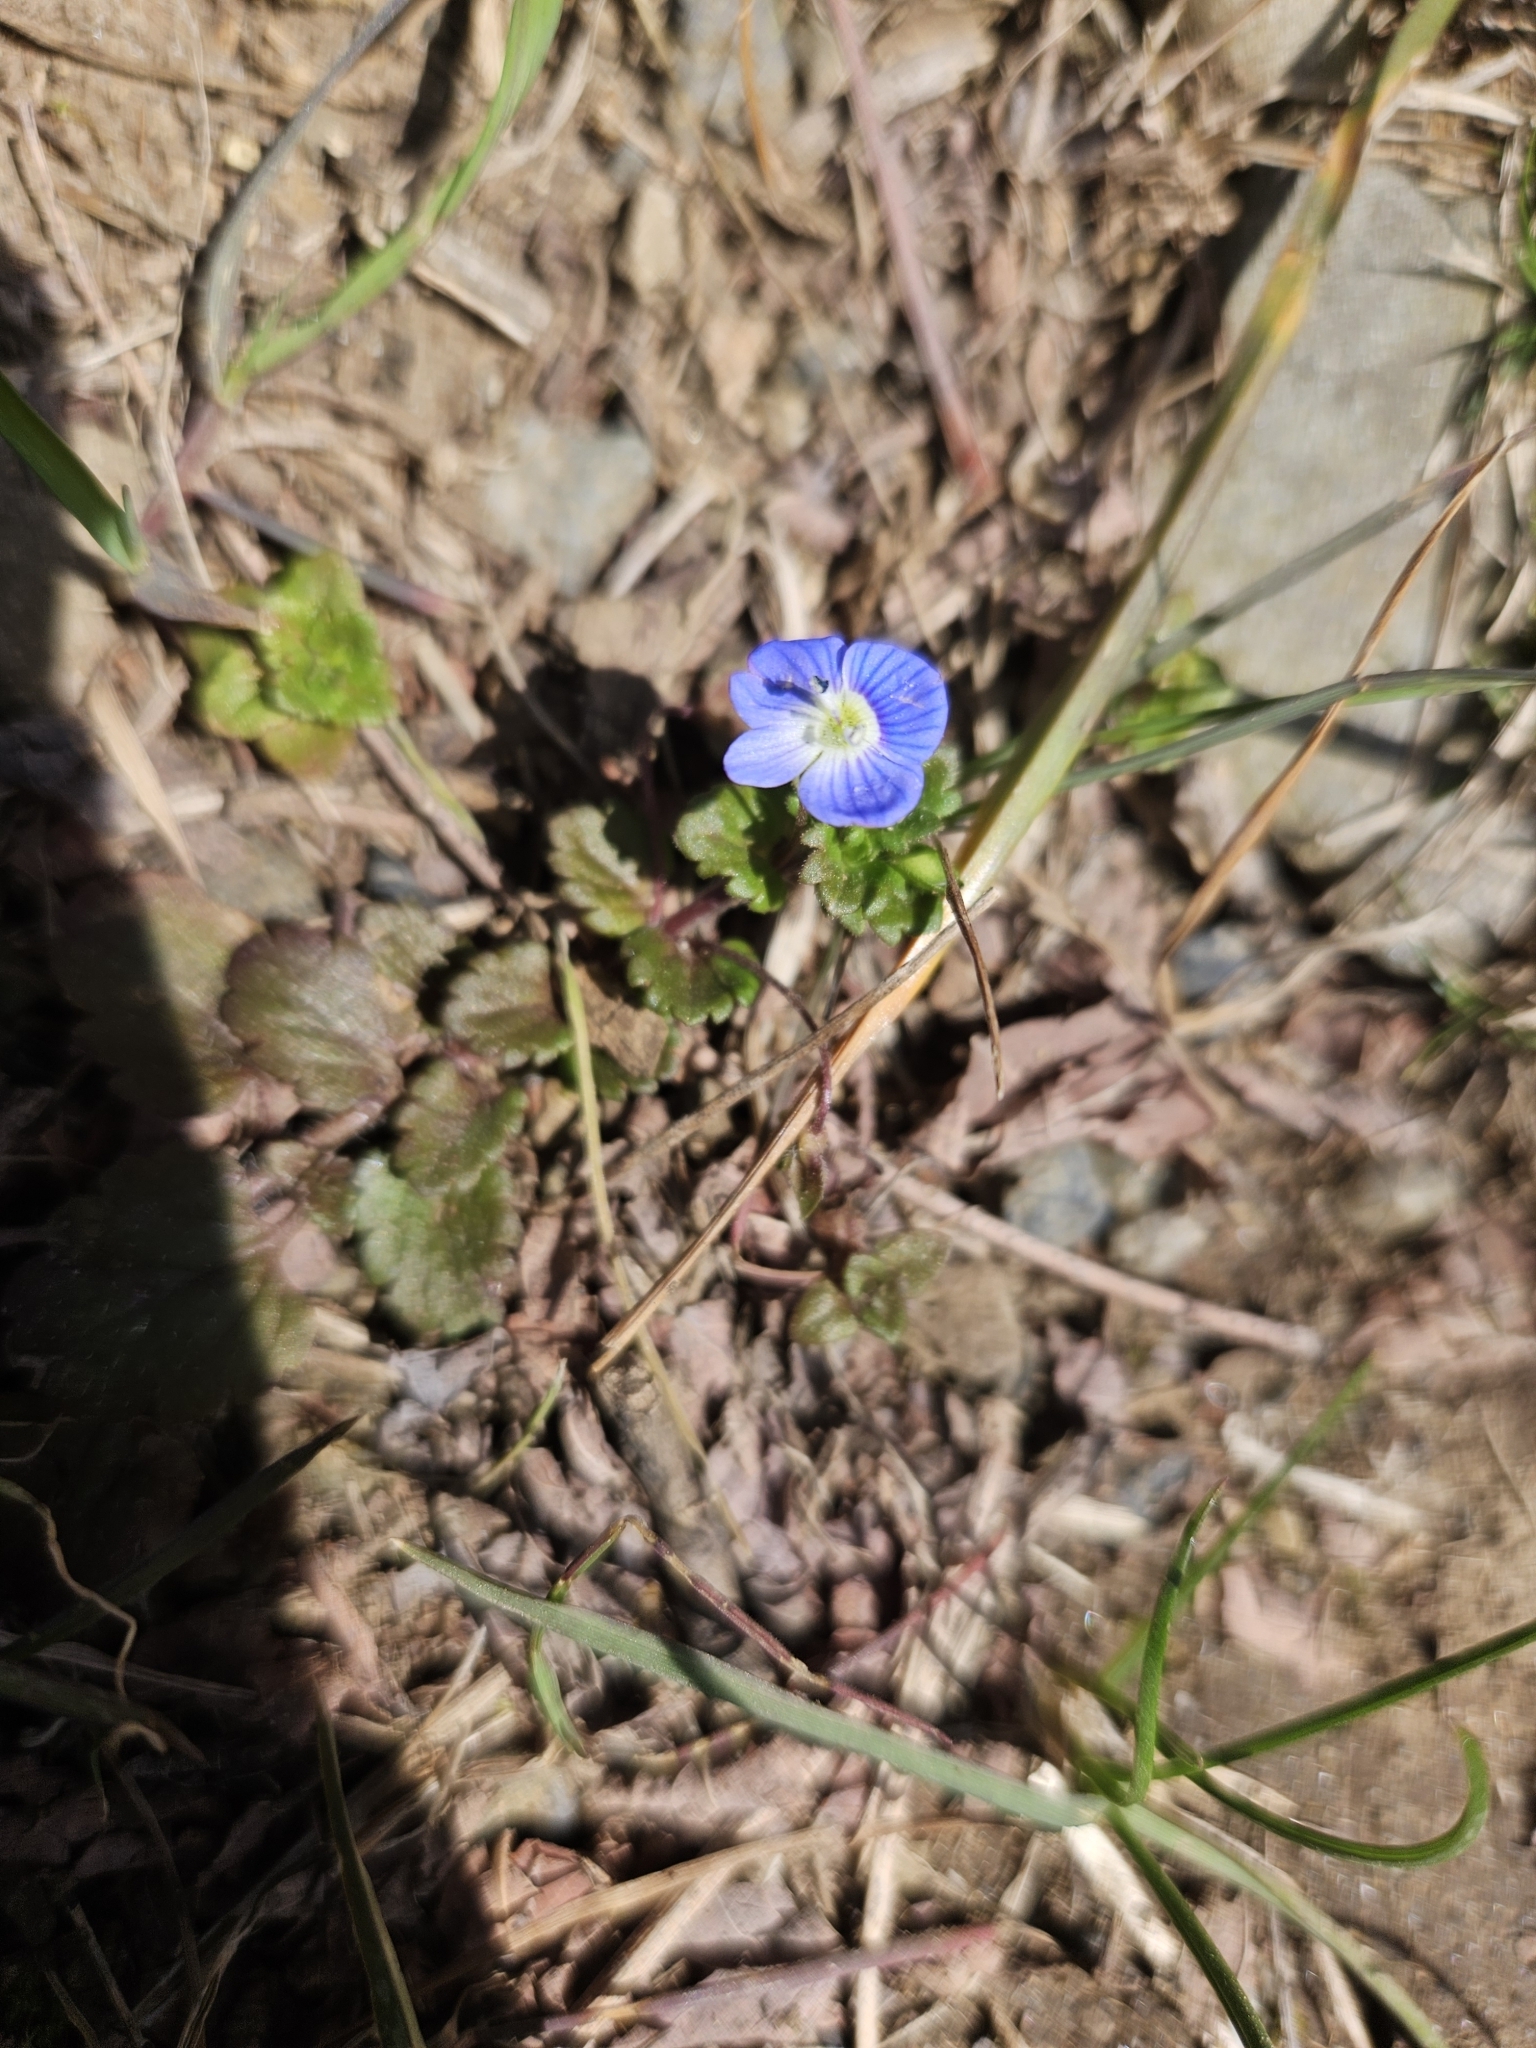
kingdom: Plantae
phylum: Tracheophyta
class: Magnoliopsida
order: Lamiales
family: Plantaginaceae
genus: Veronica
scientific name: Veronica persica
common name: Common field-speedwell
